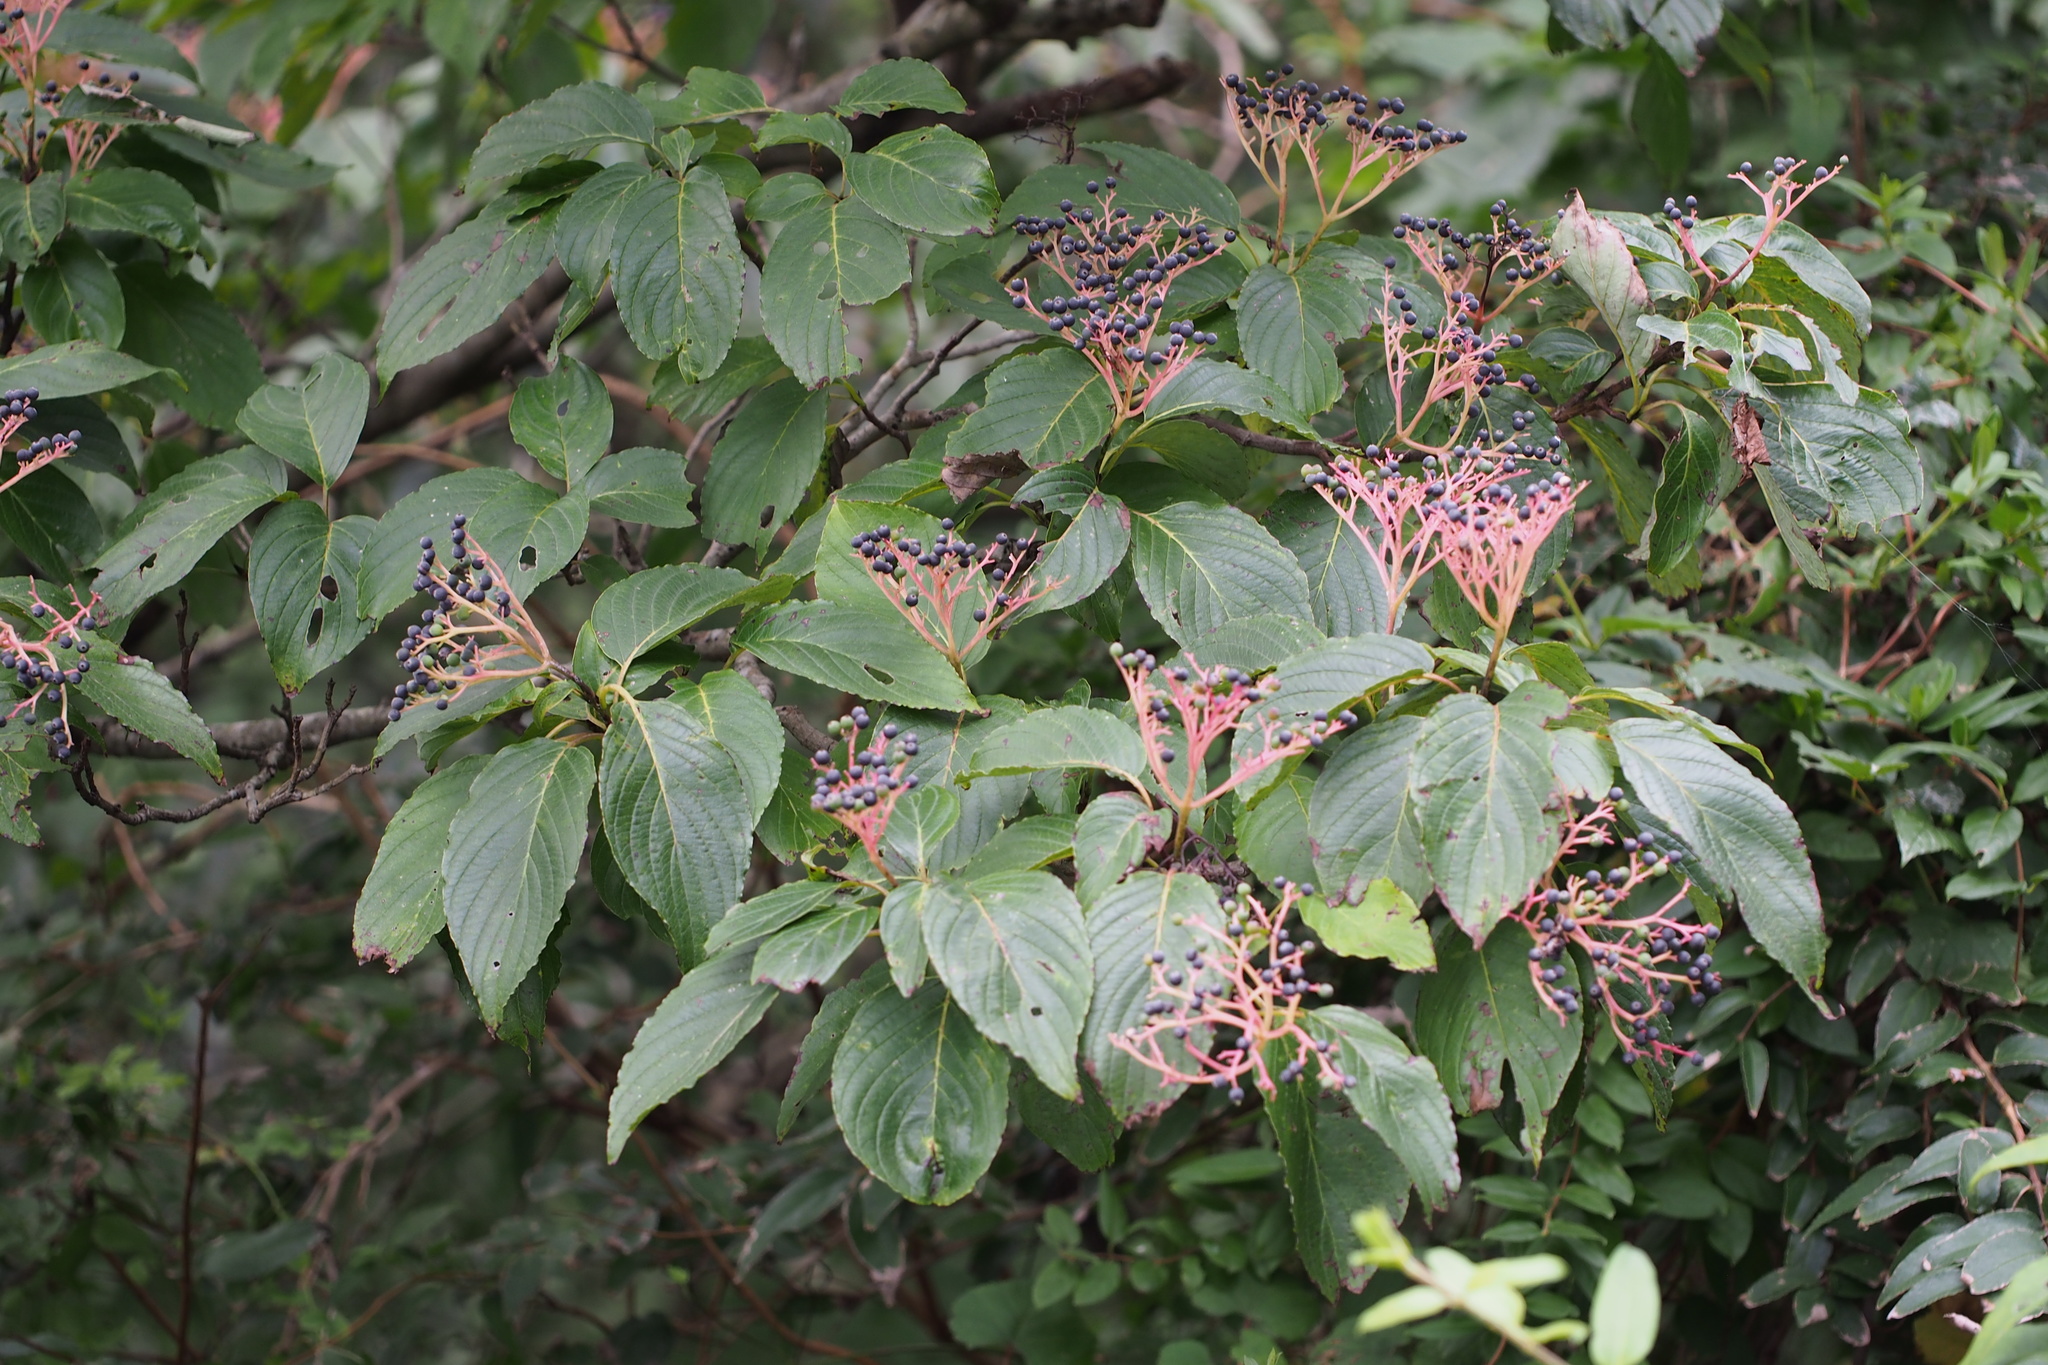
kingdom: Plantae
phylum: Tracheophyta
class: Magnoliopsida
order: Cornales
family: Cornaceae
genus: Cornus
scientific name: Cornus macrophylla
